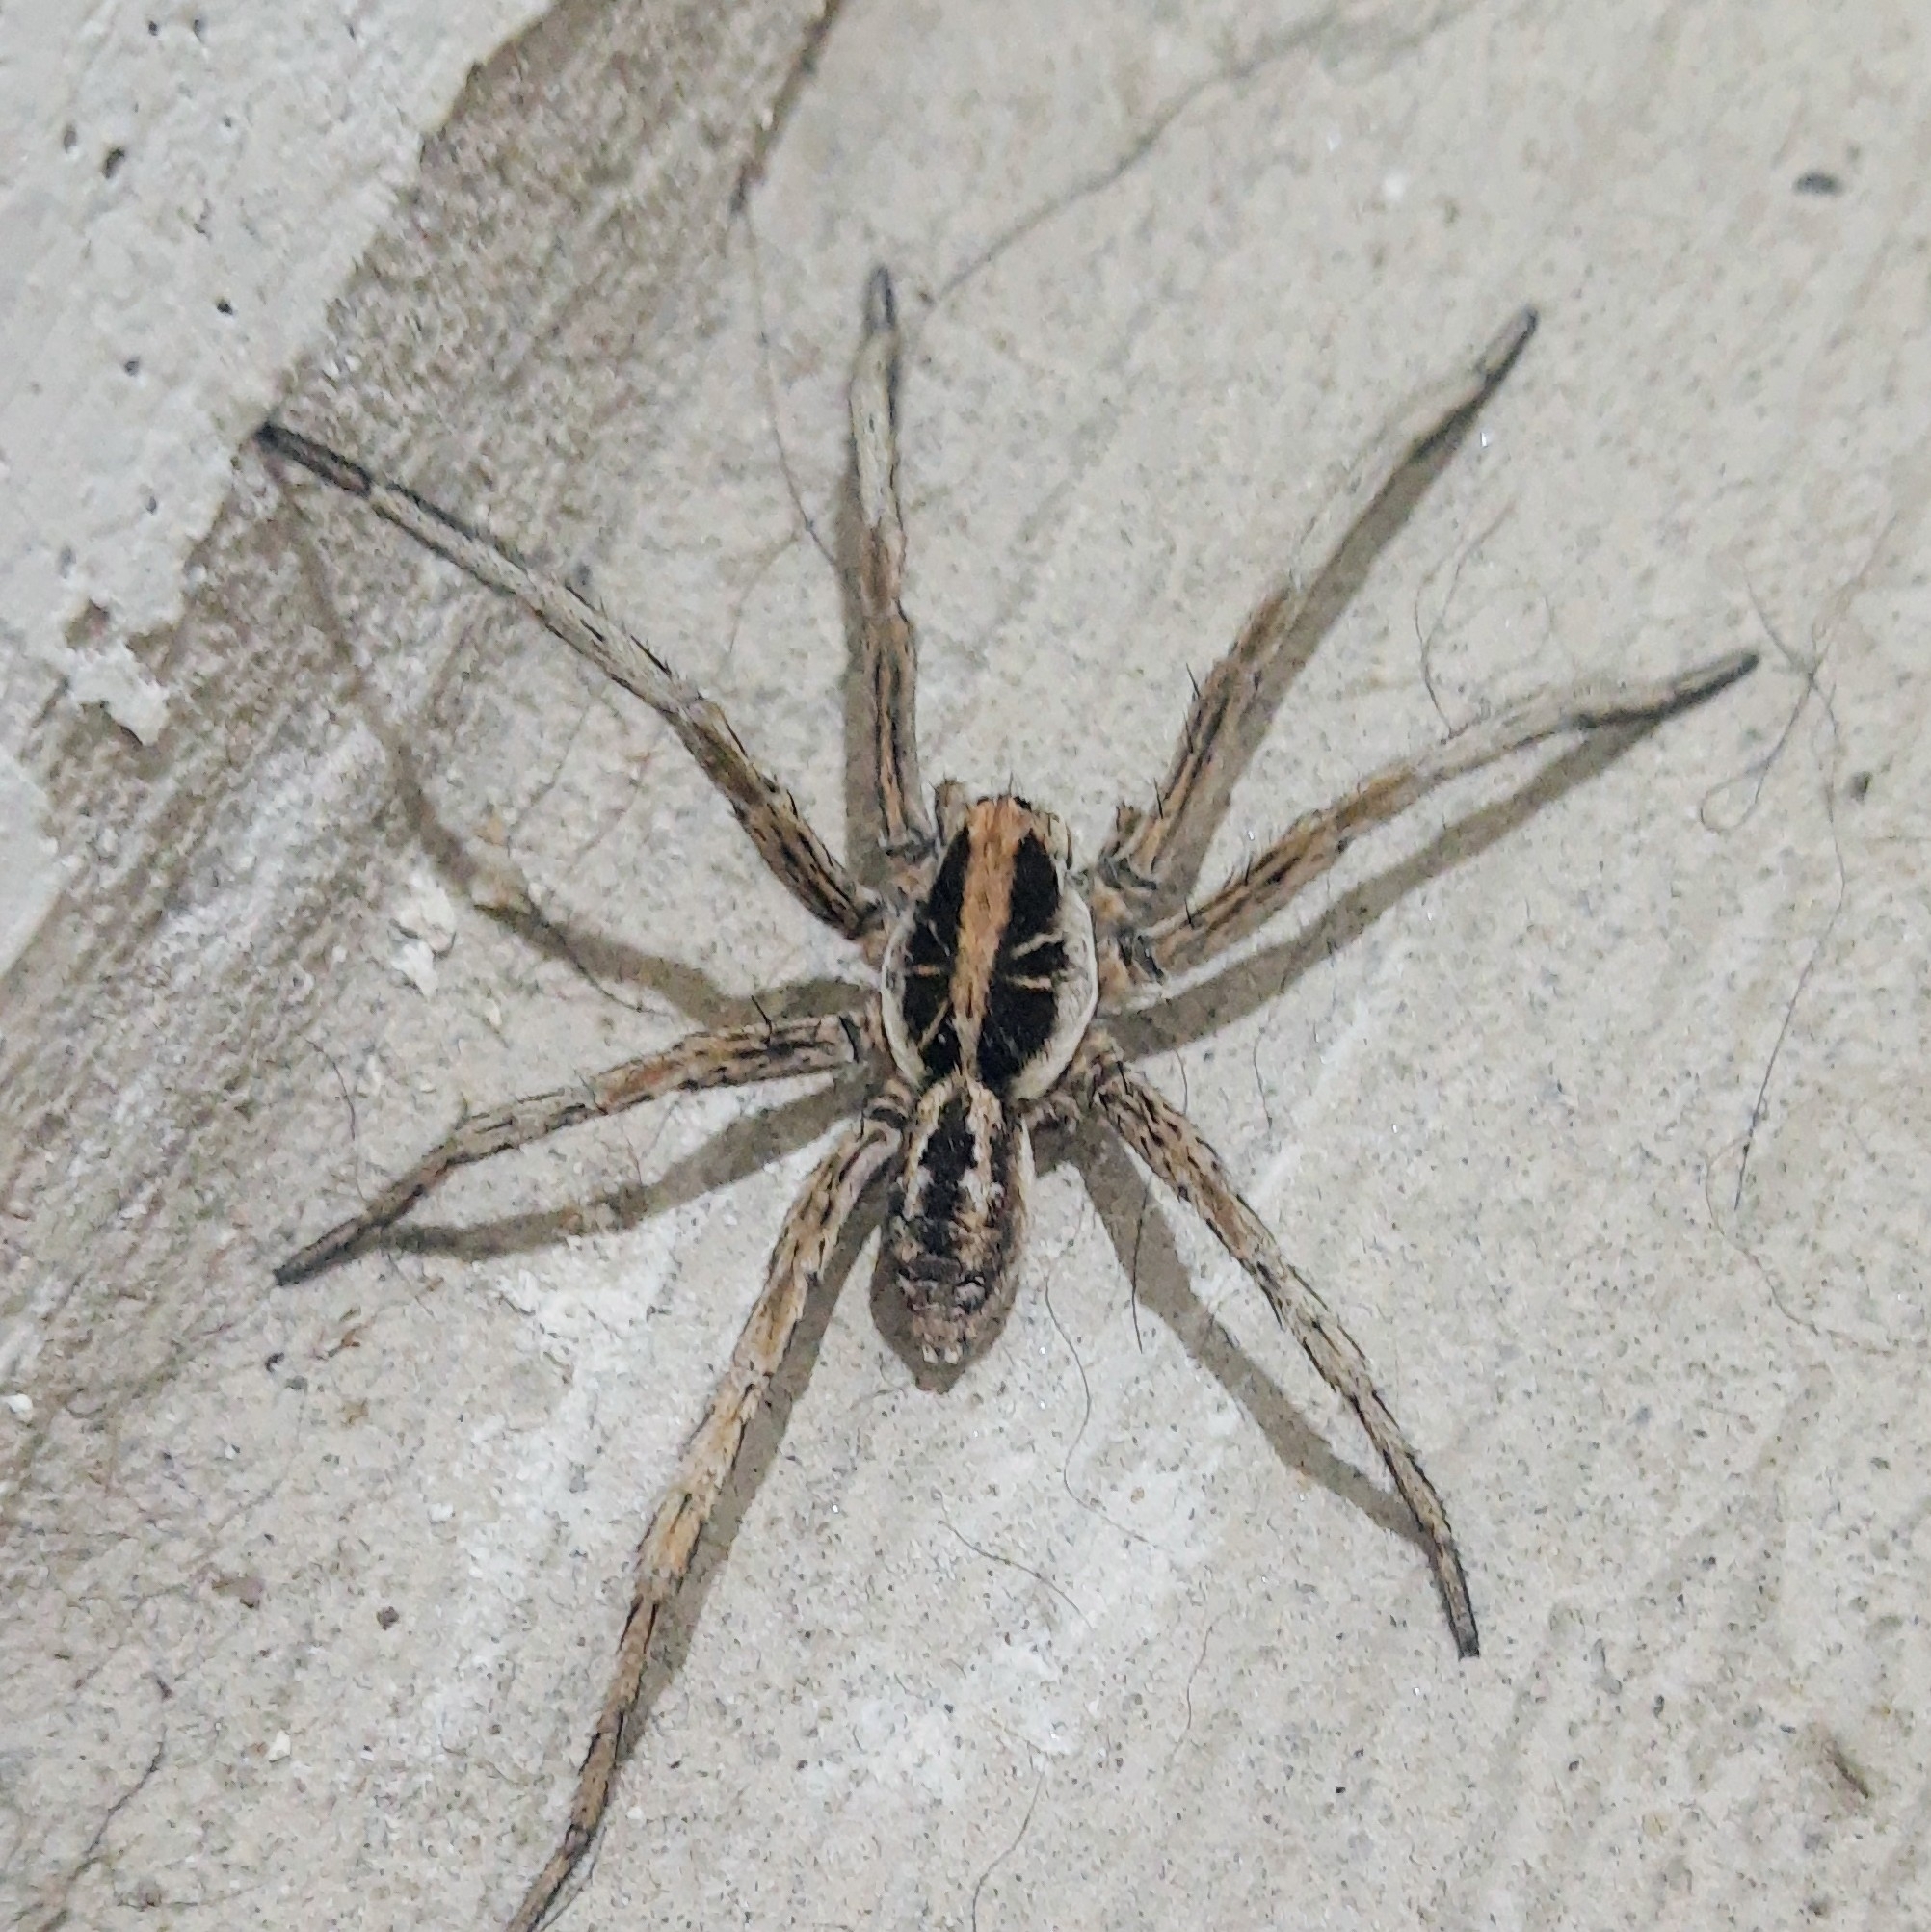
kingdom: Animalia
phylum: Arthropoda
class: Arachnida
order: Araneae
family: Lycosidae
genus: Schizocosa
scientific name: Schizocosa malitiosa
